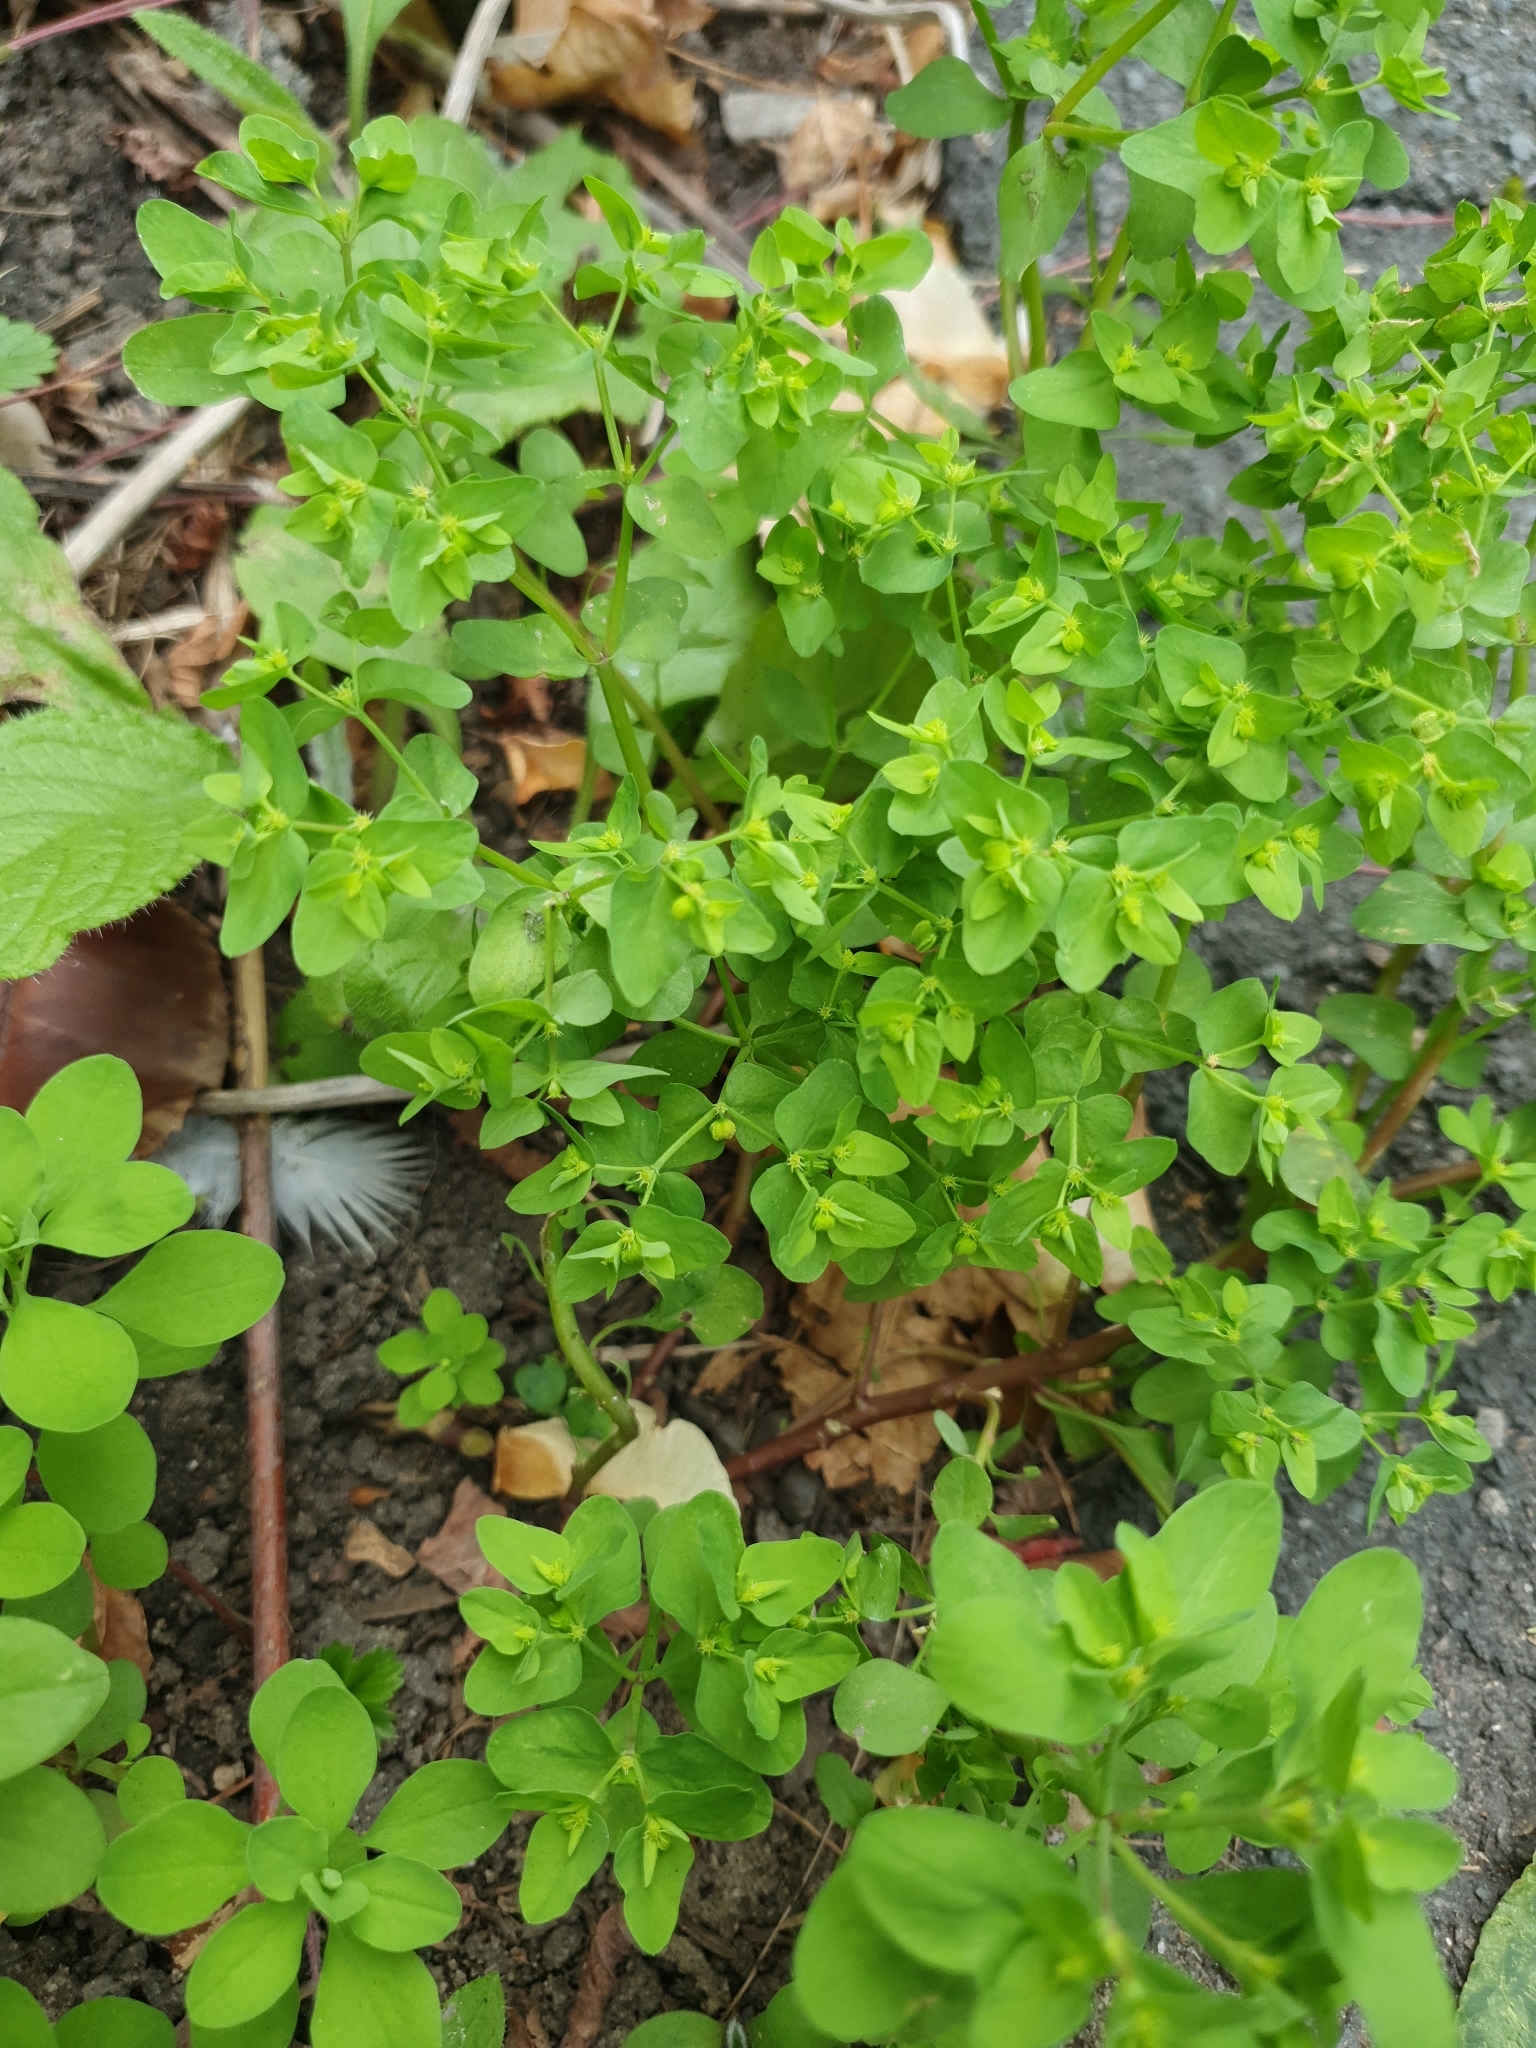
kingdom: Plantae
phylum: Tracheophyta
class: Magnoliopsida
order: Malpighiales
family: Euphorbiaceae
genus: Euphorbia
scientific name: Euphorbia peplus
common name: Petty spurge
